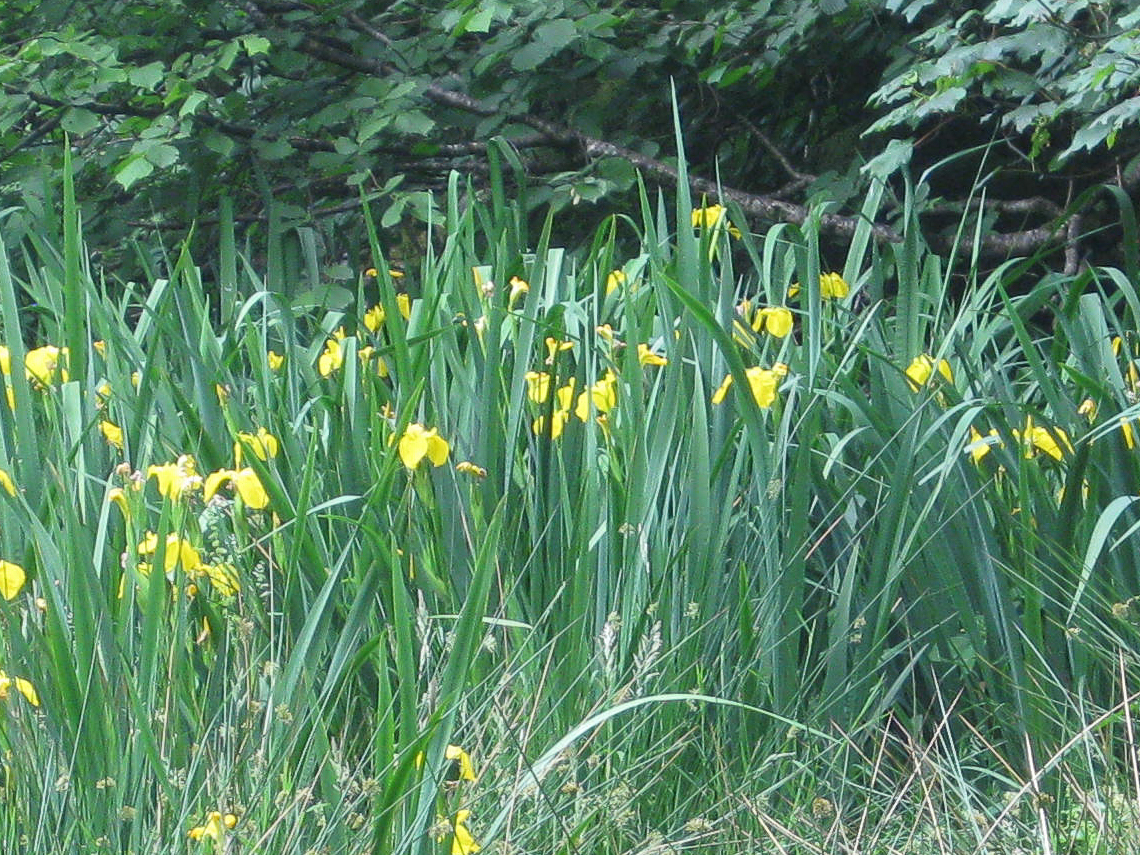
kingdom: Plantae
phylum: Tracheophyta
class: Liliopsida
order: Asparagales
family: Iridaceae
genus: Iris
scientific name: Iris pseudacorus
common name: Yellow flag
